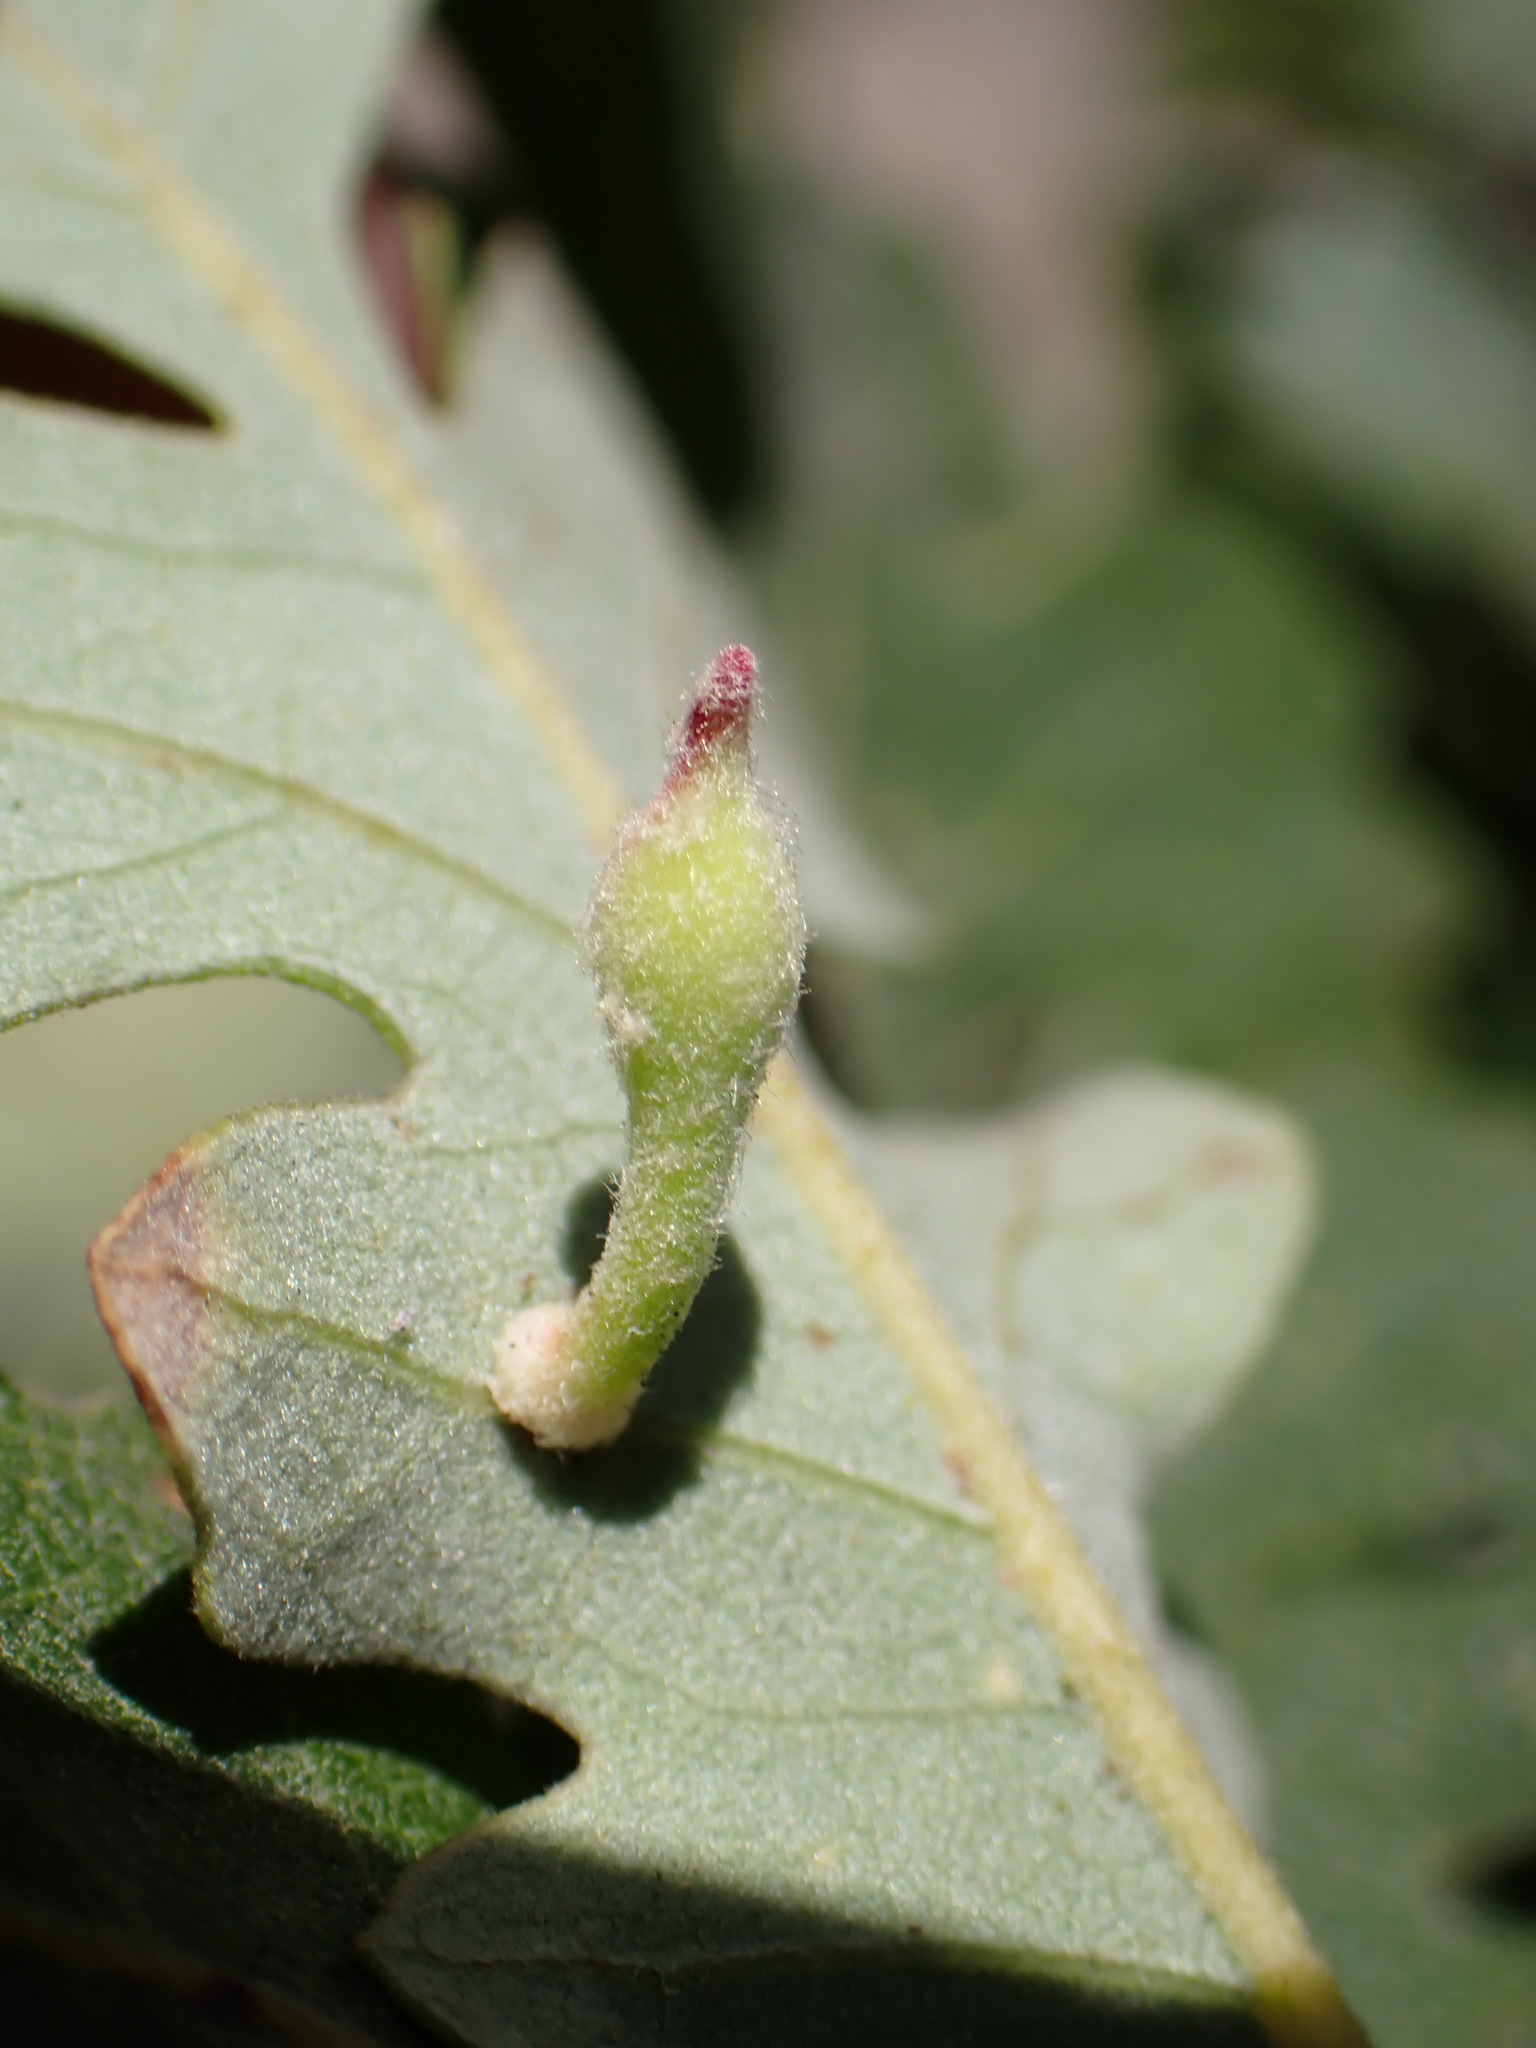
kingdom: Animalia
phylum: Arthropoda
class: Insecta
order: Hymenoptera
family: Cynipidae
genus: Atrusca
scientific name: Atrusca
